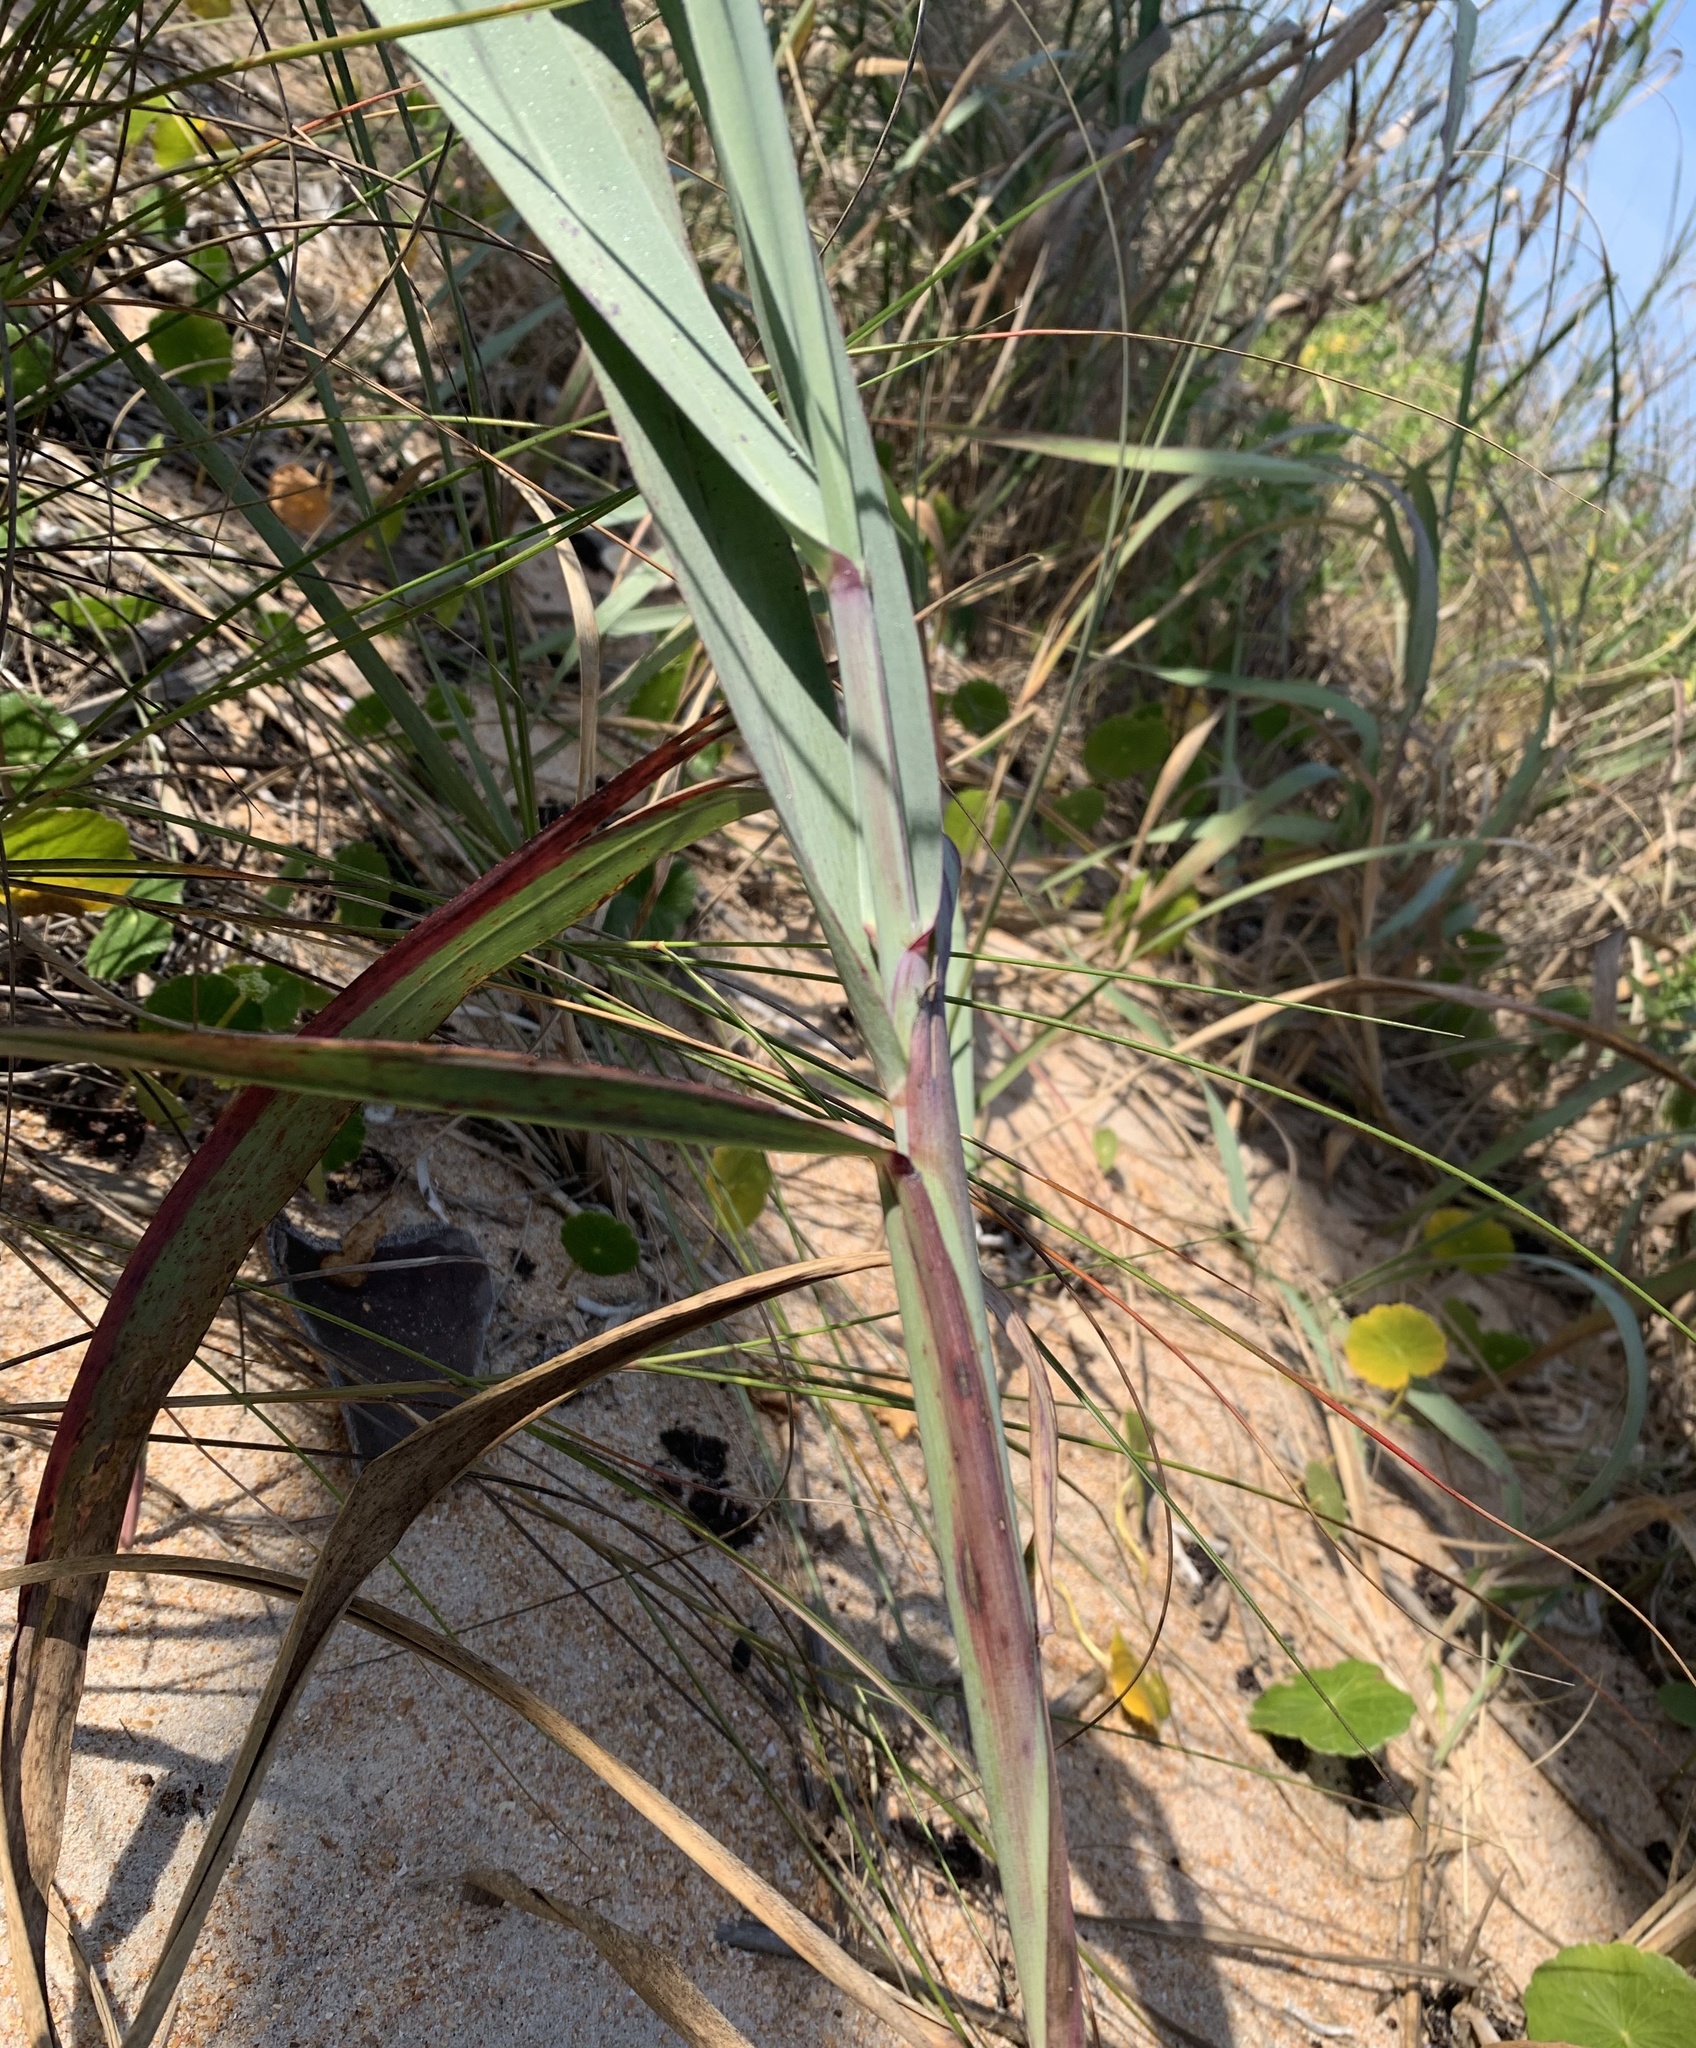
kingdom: Plantae
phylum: Tracheophyta
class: Liliopsida
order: Poales
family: Poaceae
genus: Panicum
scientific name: Panicum amarum
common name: Bitter panicum
